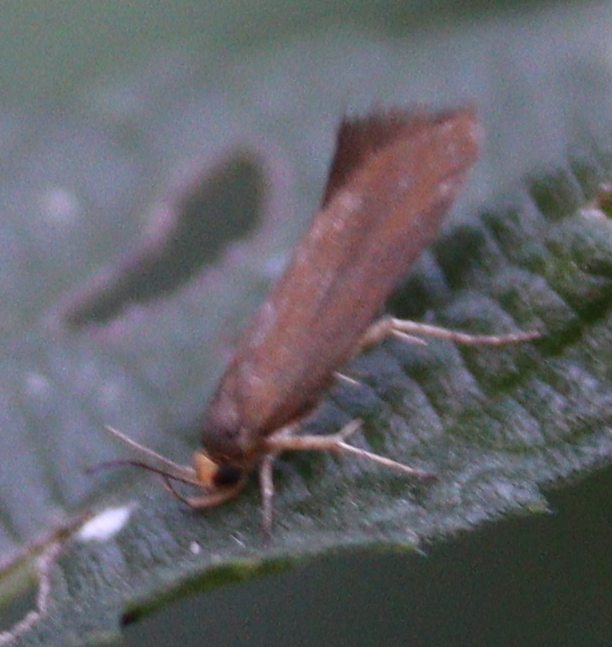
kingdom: Animalia
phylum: Arthropoda
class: Insecta
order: Lepidoptera
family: Oecophoridae
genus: Borkhausenia
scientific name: Borkhausenia Crassa unitella
